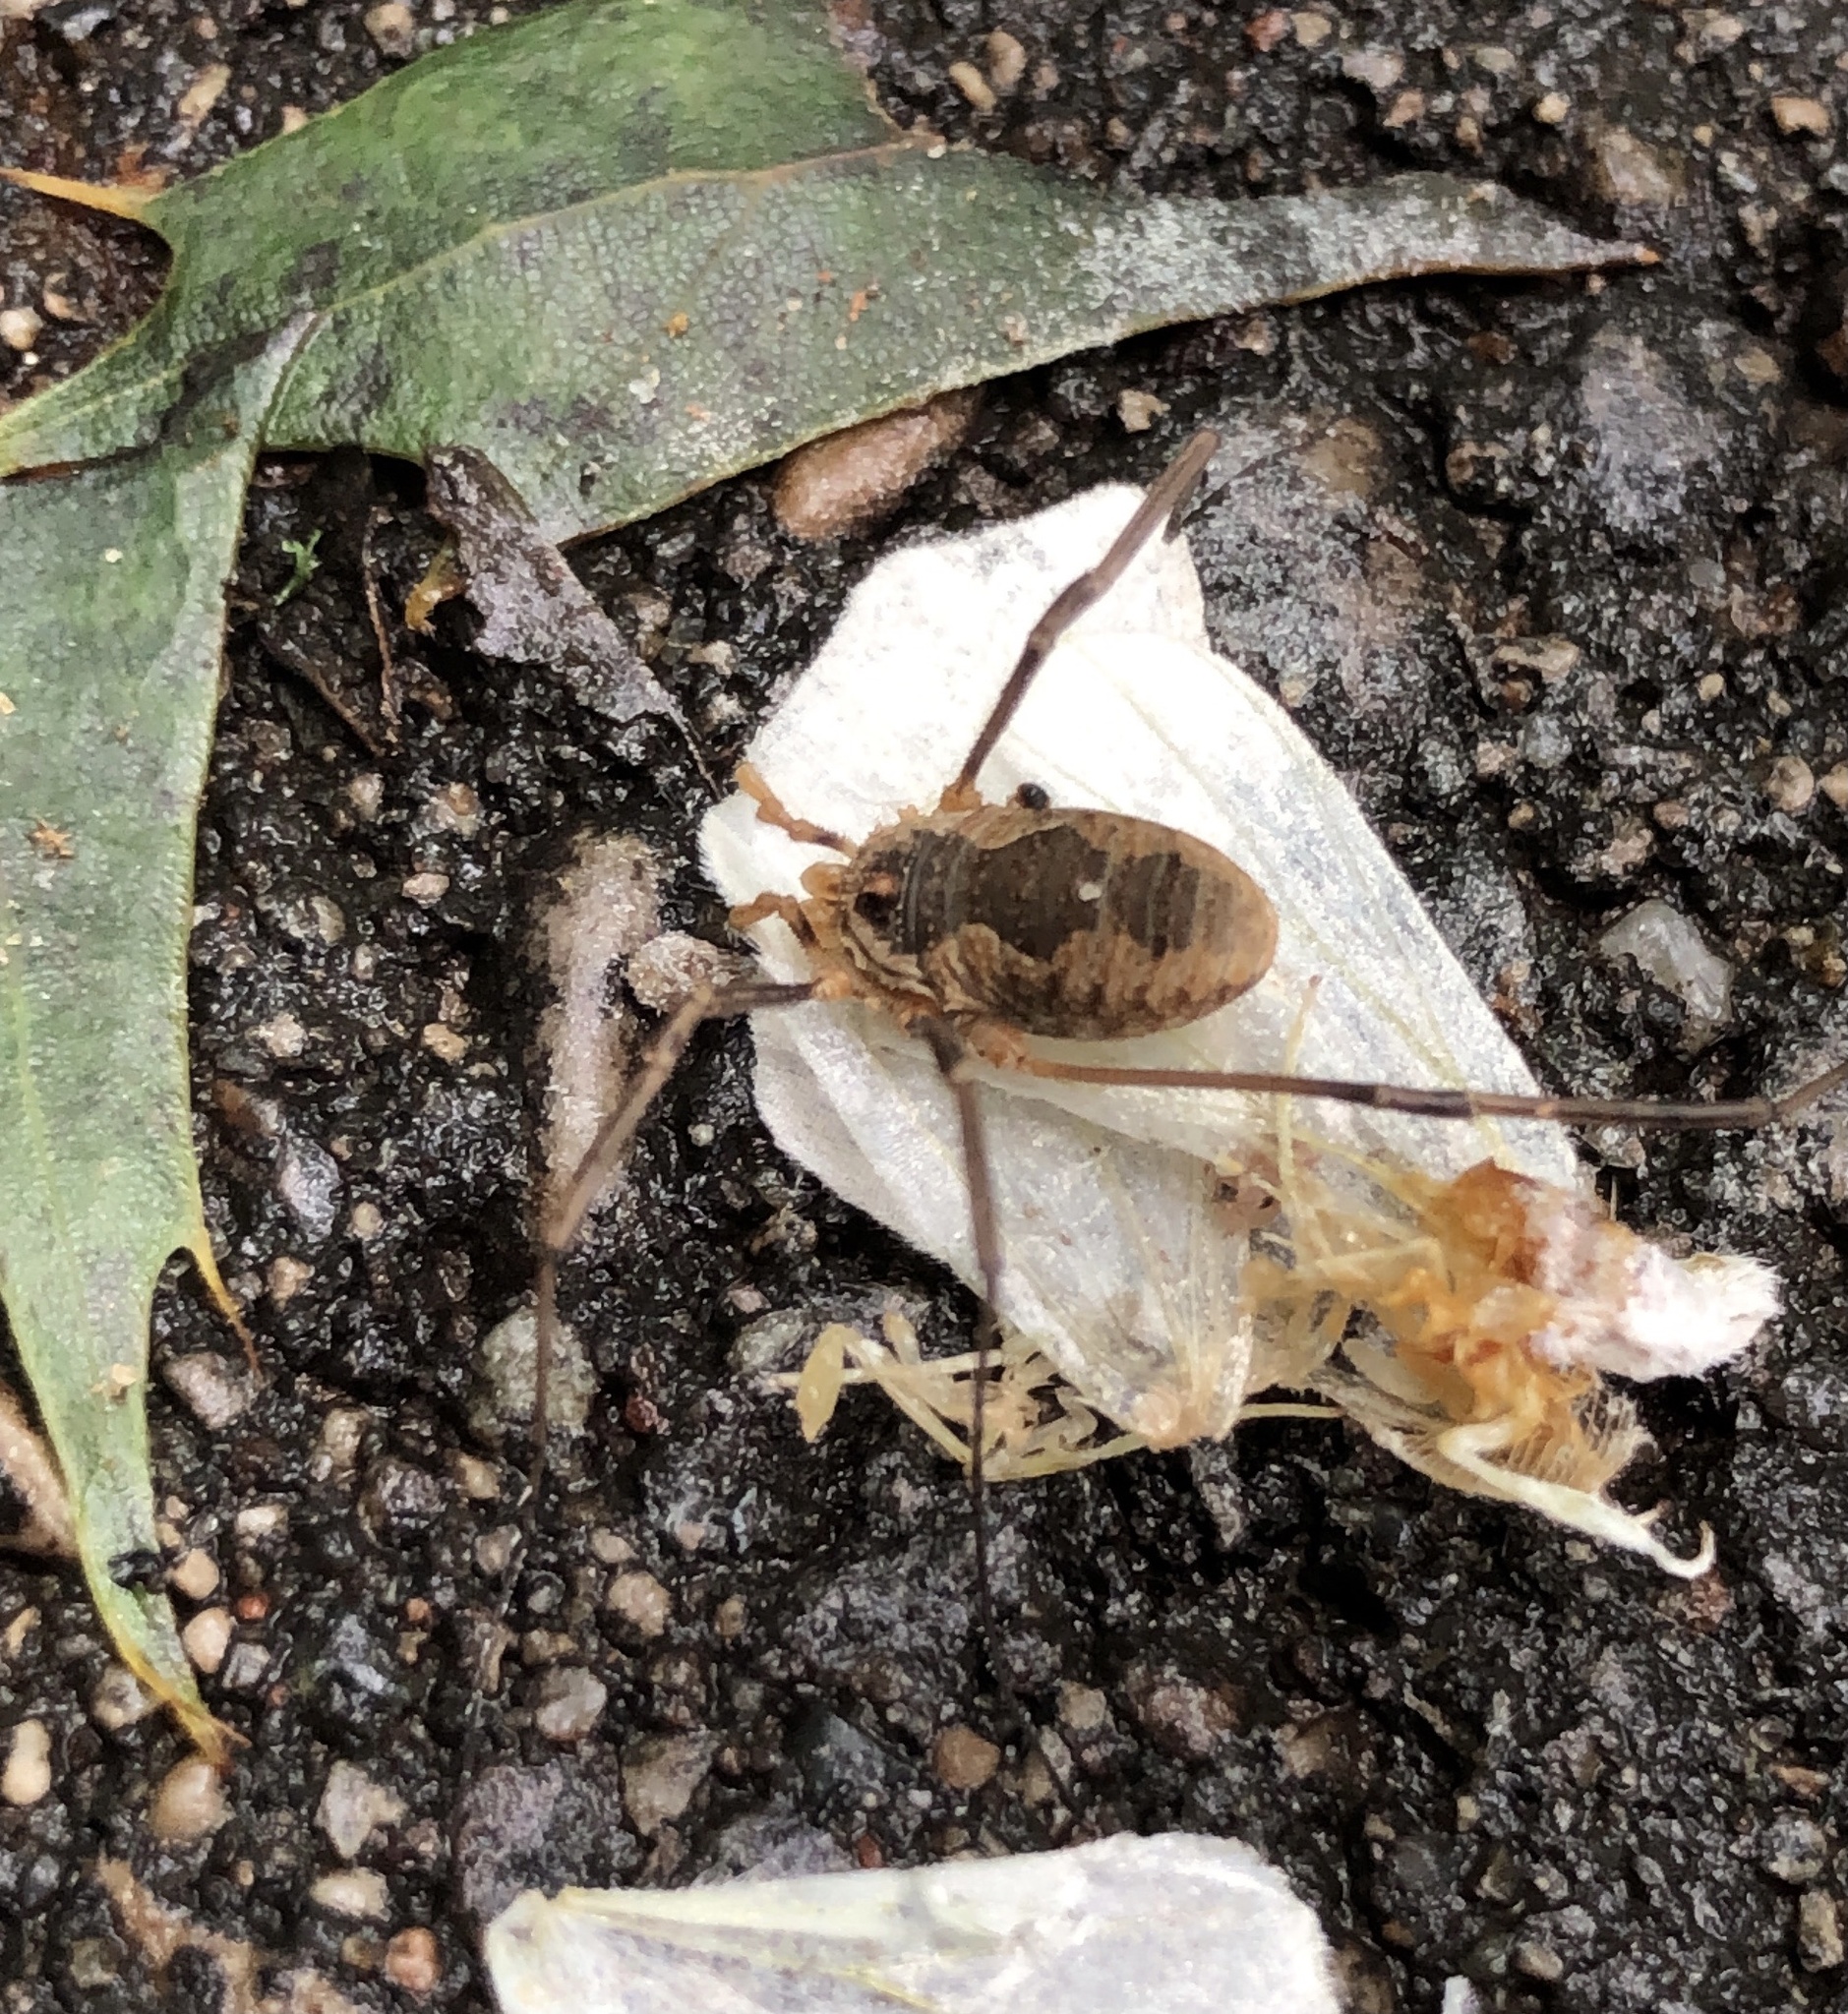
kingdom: Animalia
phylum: Arthropoda
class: Arachnida
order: Opiliones
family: Phalangiidae
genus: Phalangium
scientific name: Phalangium opilio
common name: Daddy longleg
